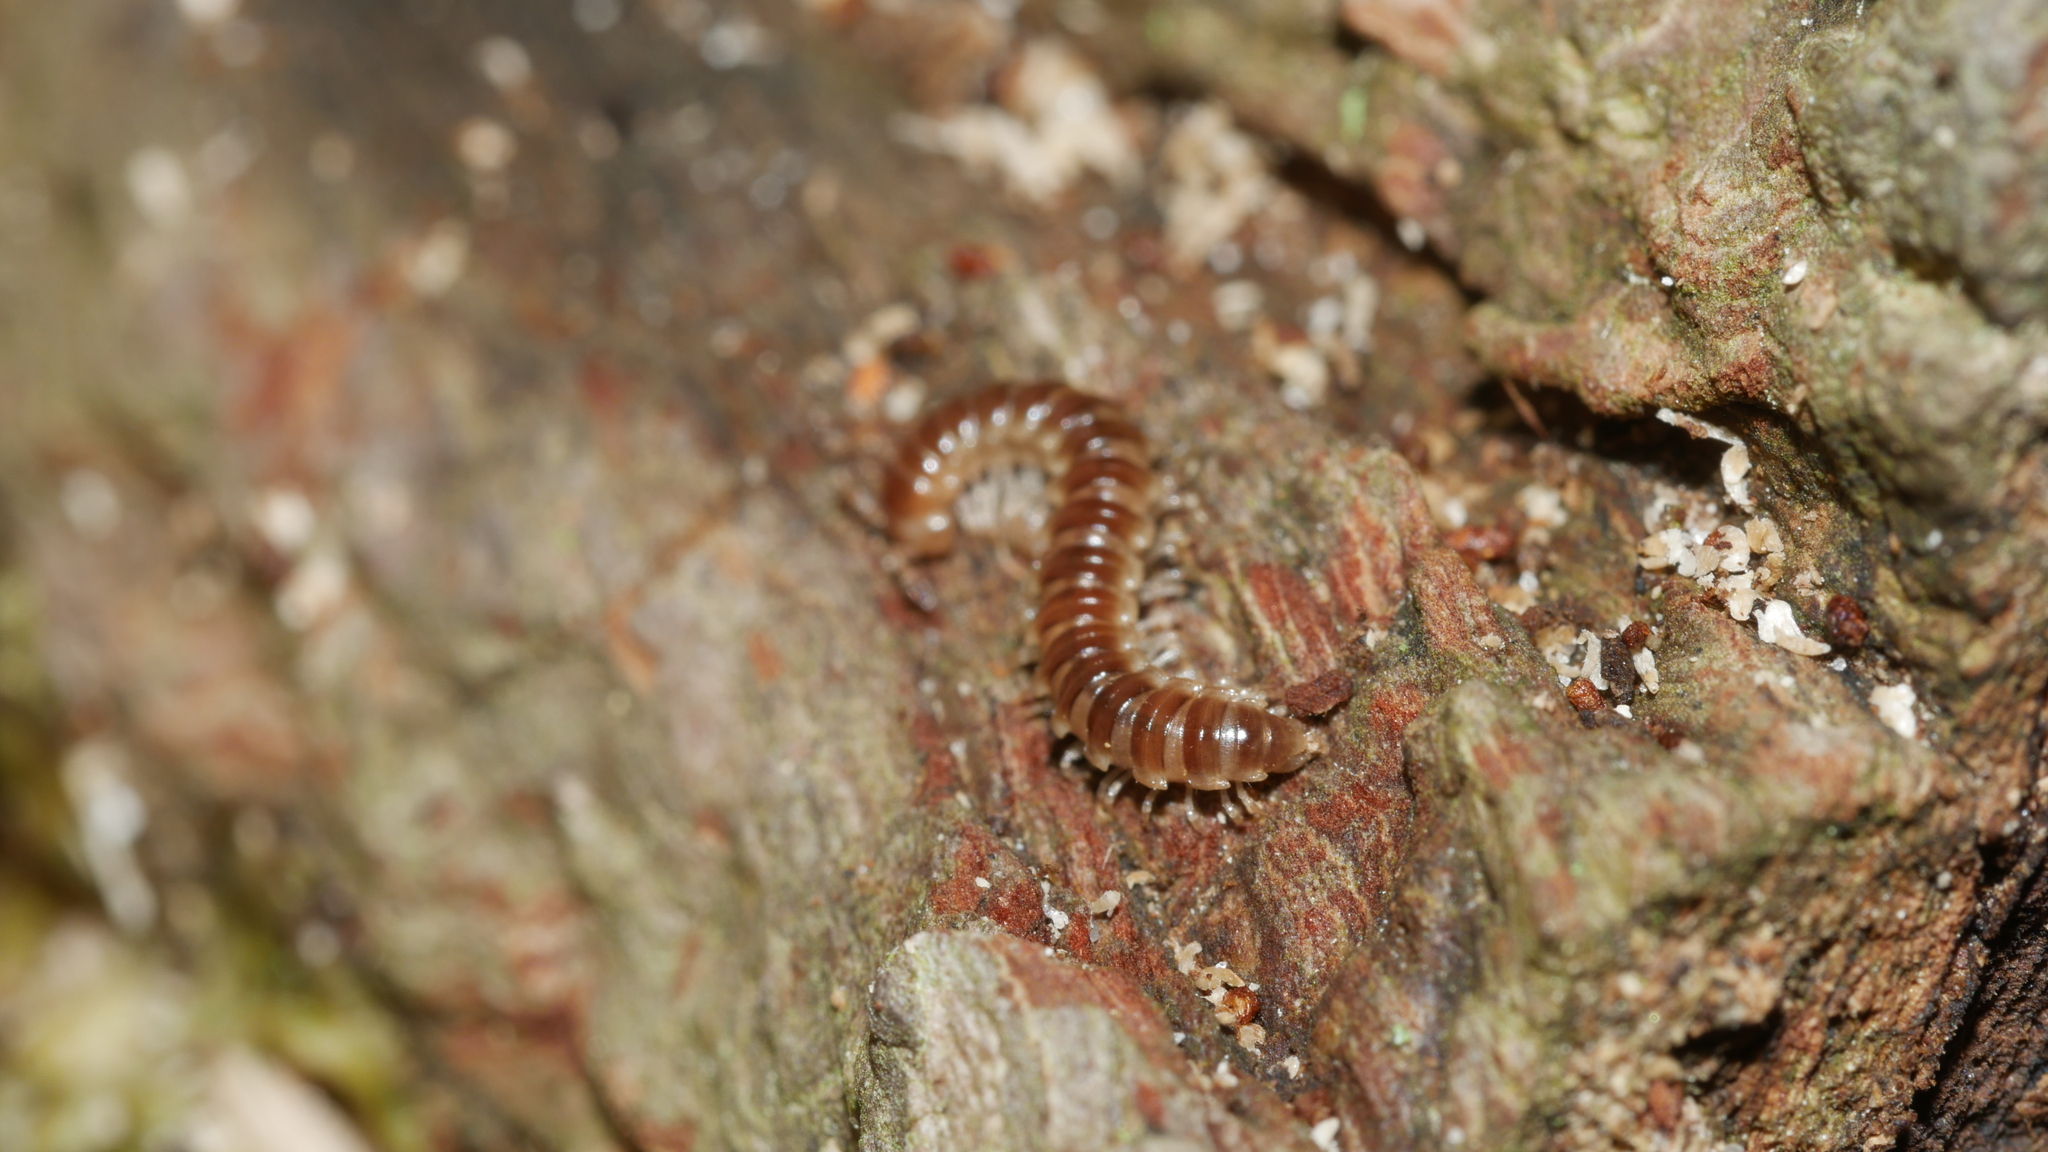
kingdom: Animalia
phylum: Arthropoda
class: Diplopoda
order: Polydesmida
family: Paradoxosomatidae
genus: Oxidus
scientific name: Oxidus gracilis
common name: Greenhouse millipede
